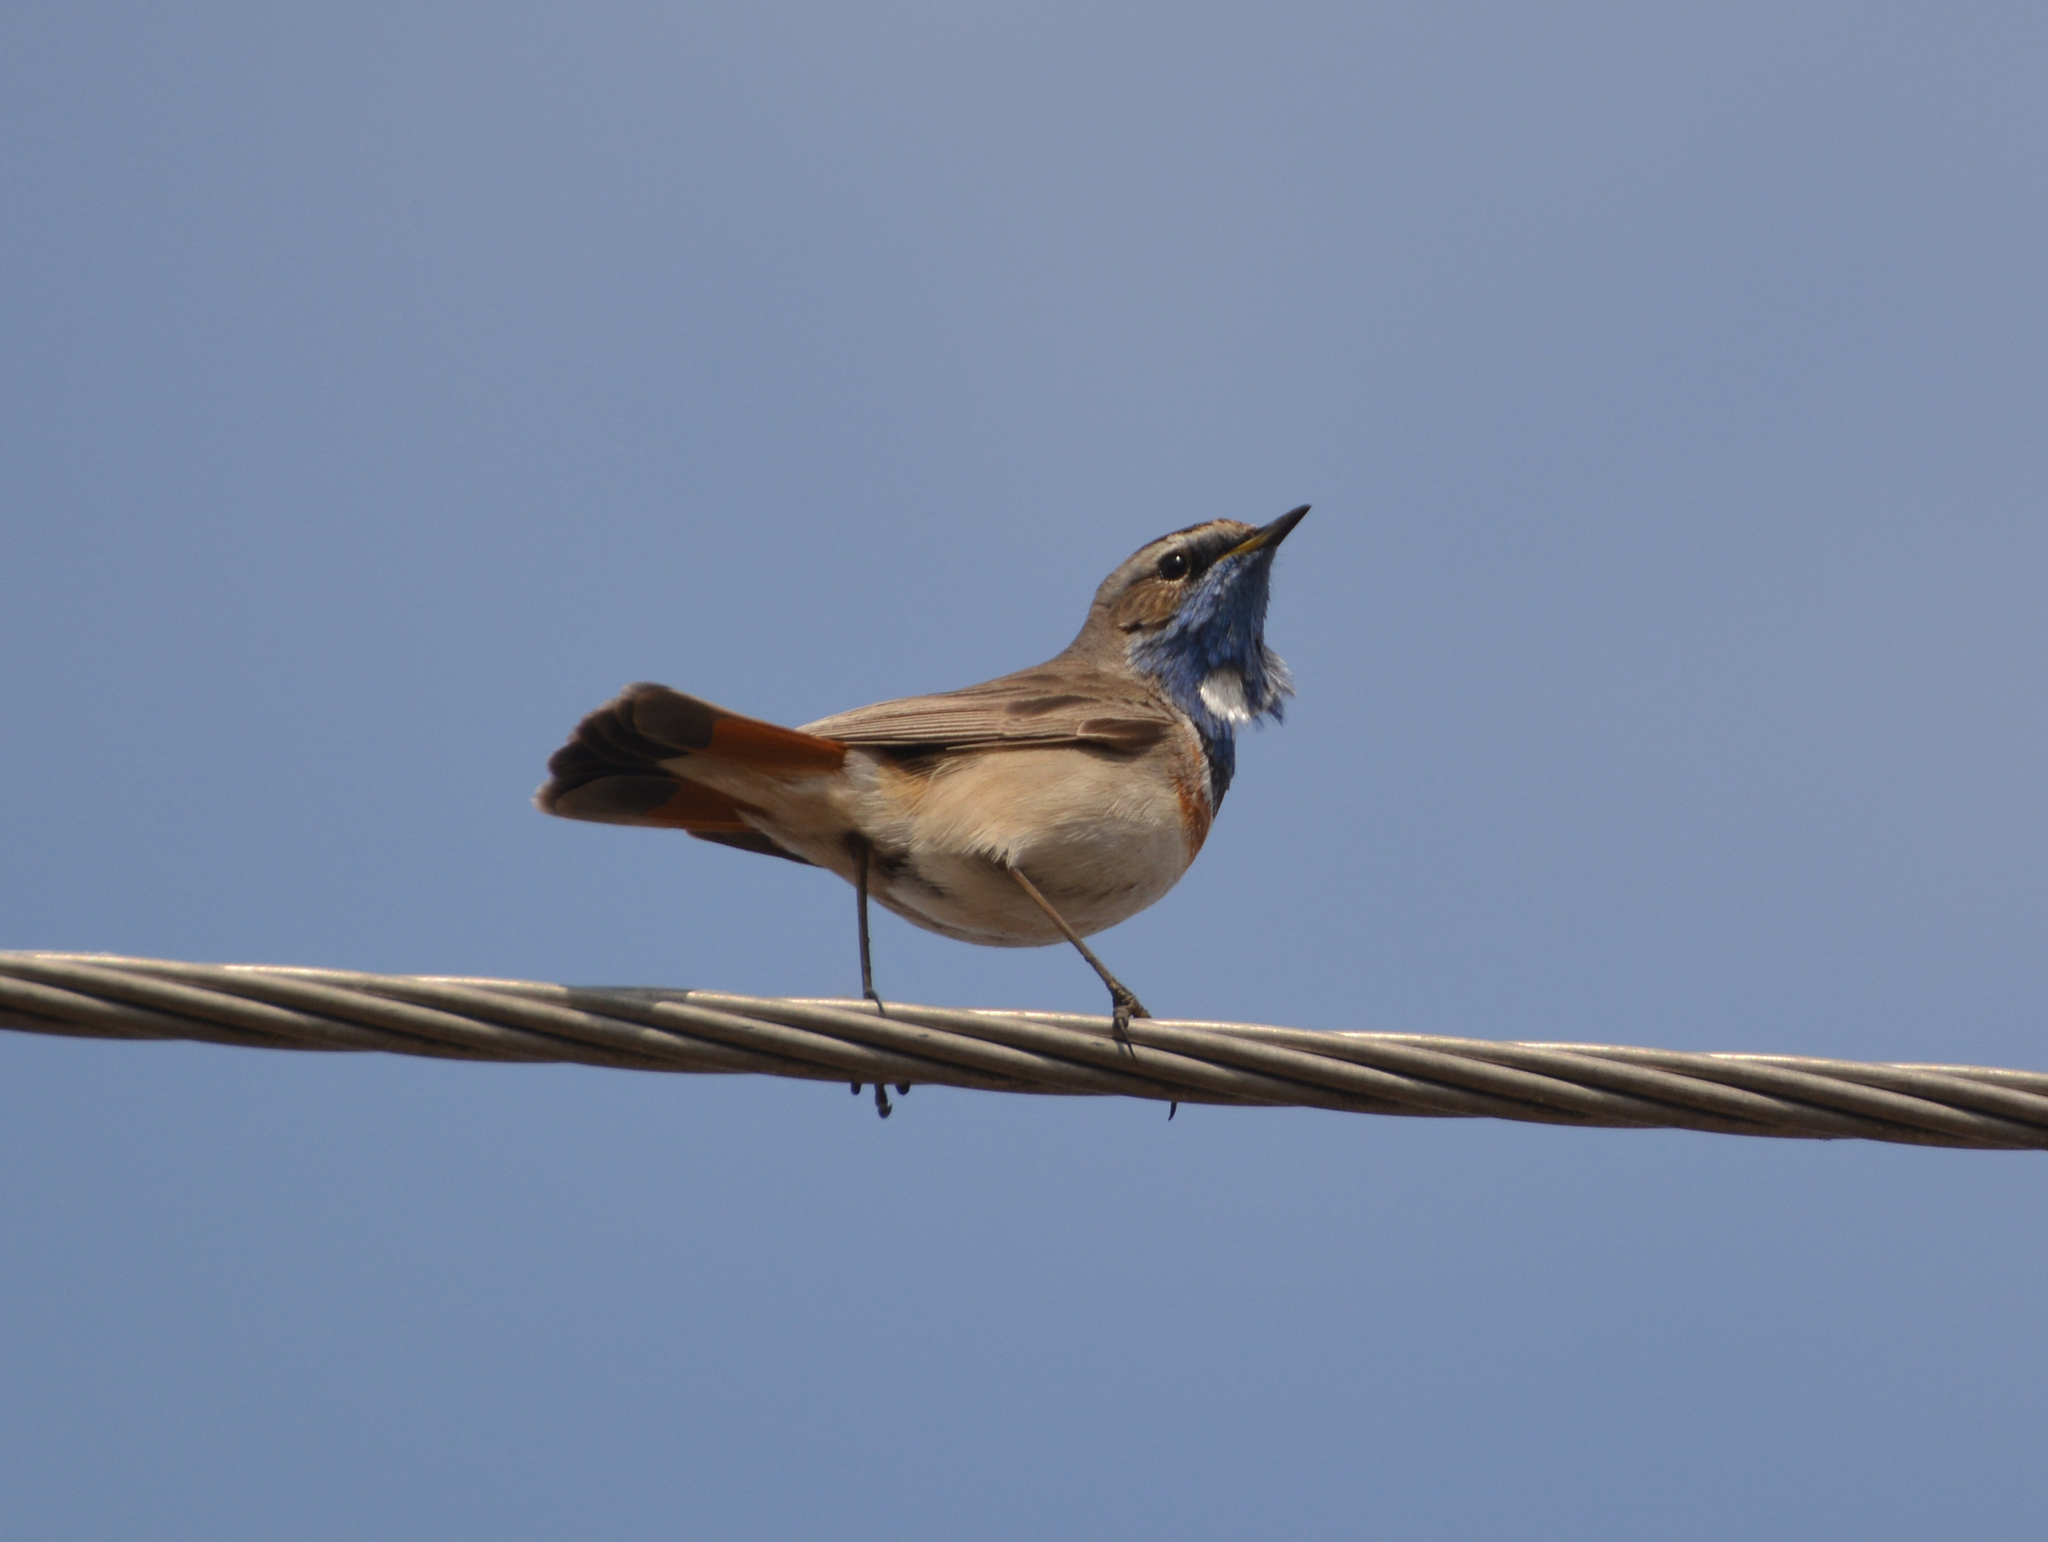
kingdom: Animalia
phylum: Chordata
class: Aves
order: Passeriformes
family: Muscicapidae
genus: Luscinia
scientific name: Luscinia svecica
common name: Bluethroat
